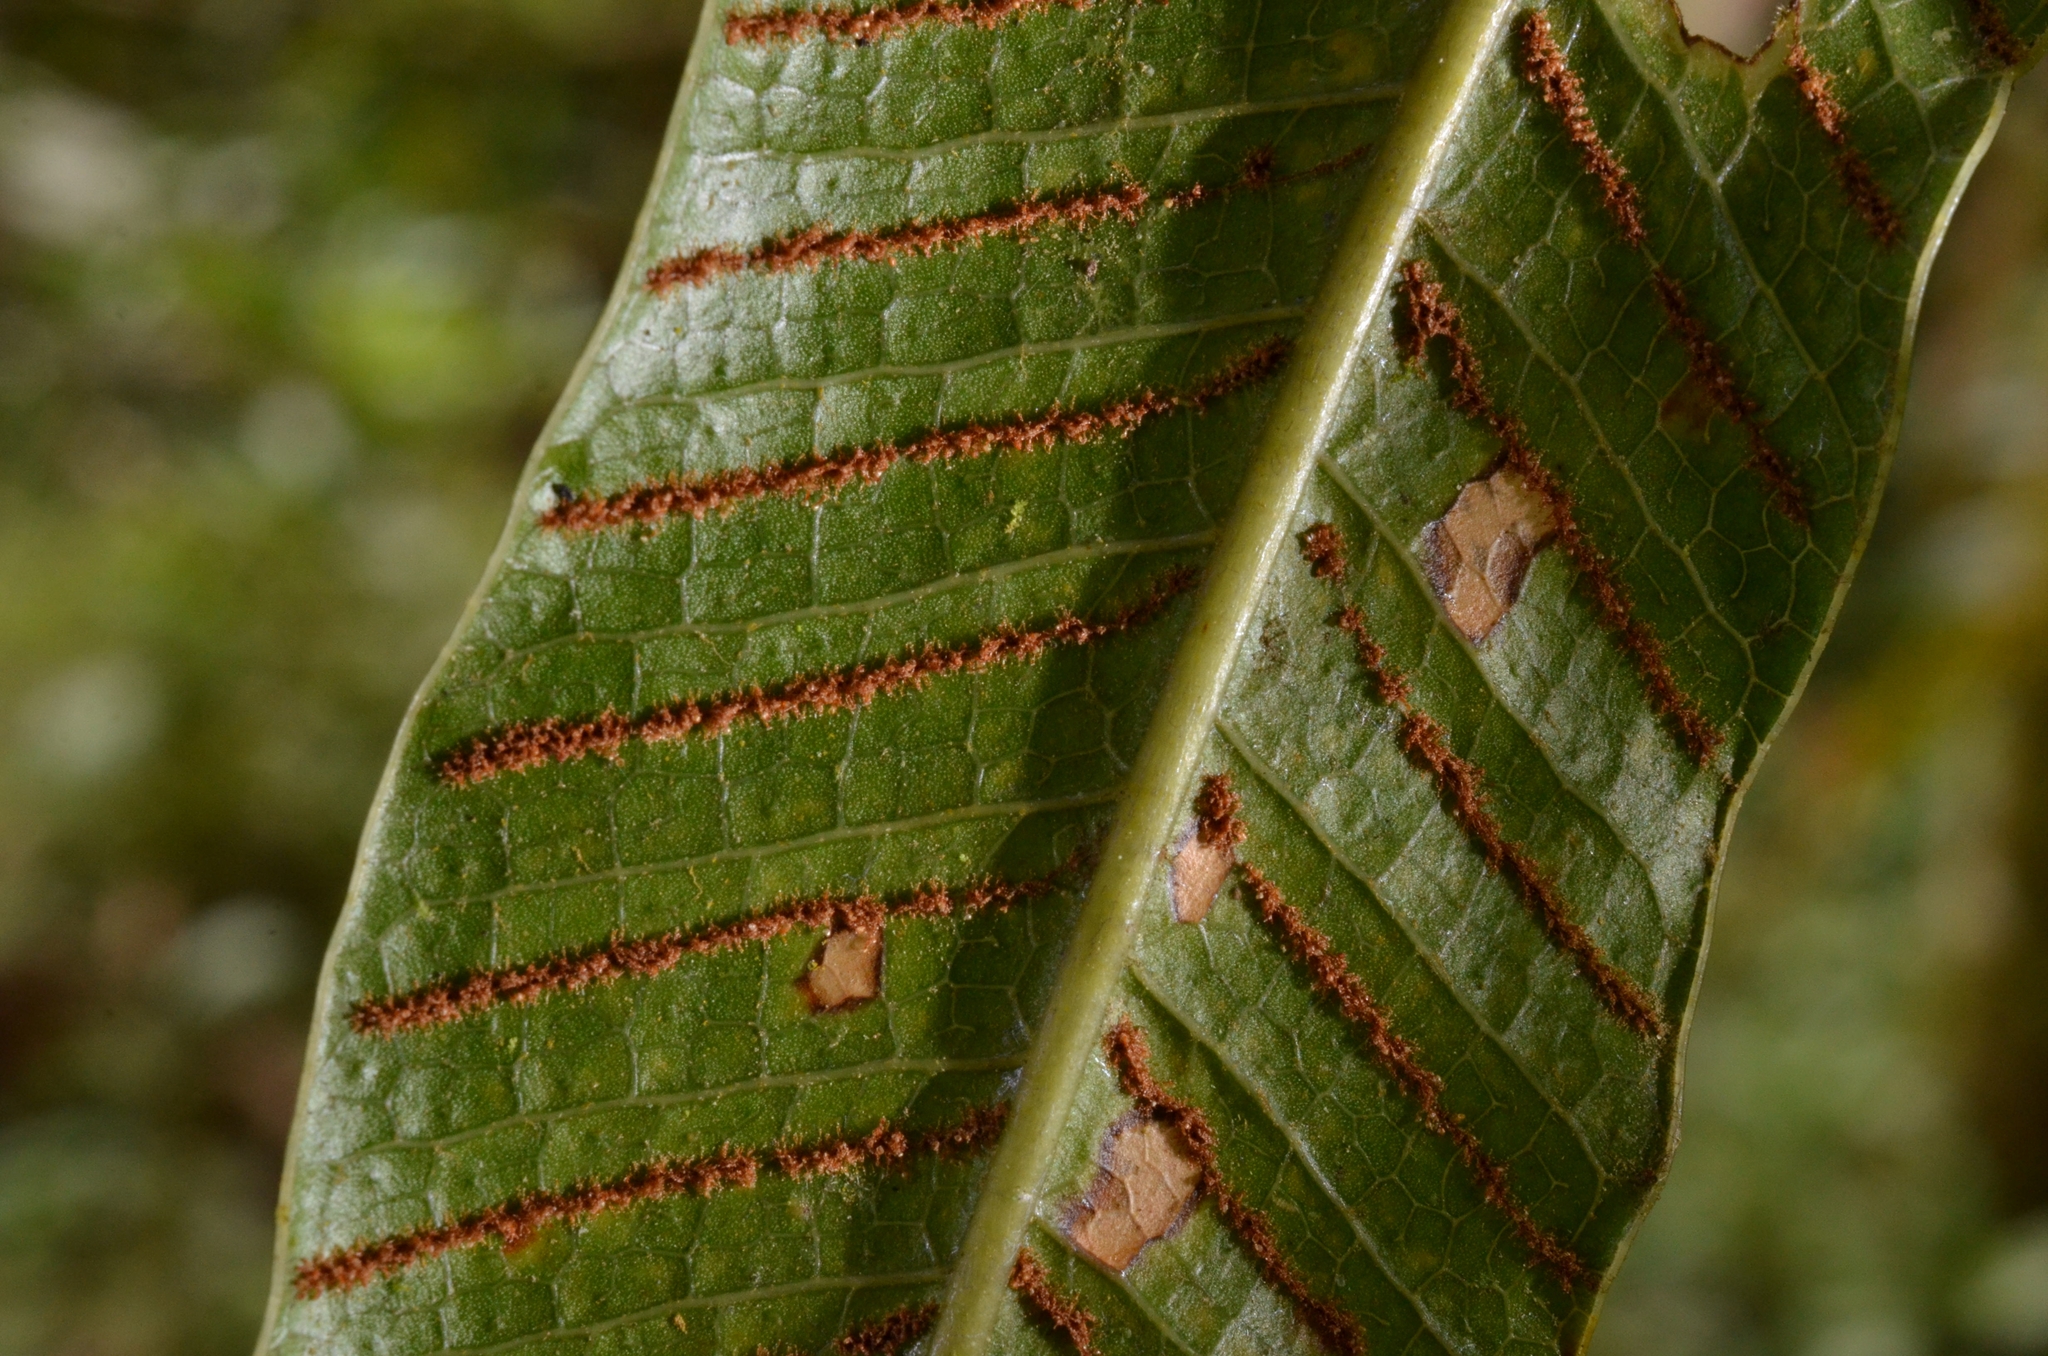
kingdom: Plantae
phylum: Tracheophyta
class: Polypodiopsida
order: Polypodiales
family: Polypodiaceae
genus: Drynaria
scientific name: Drynaria coronans
